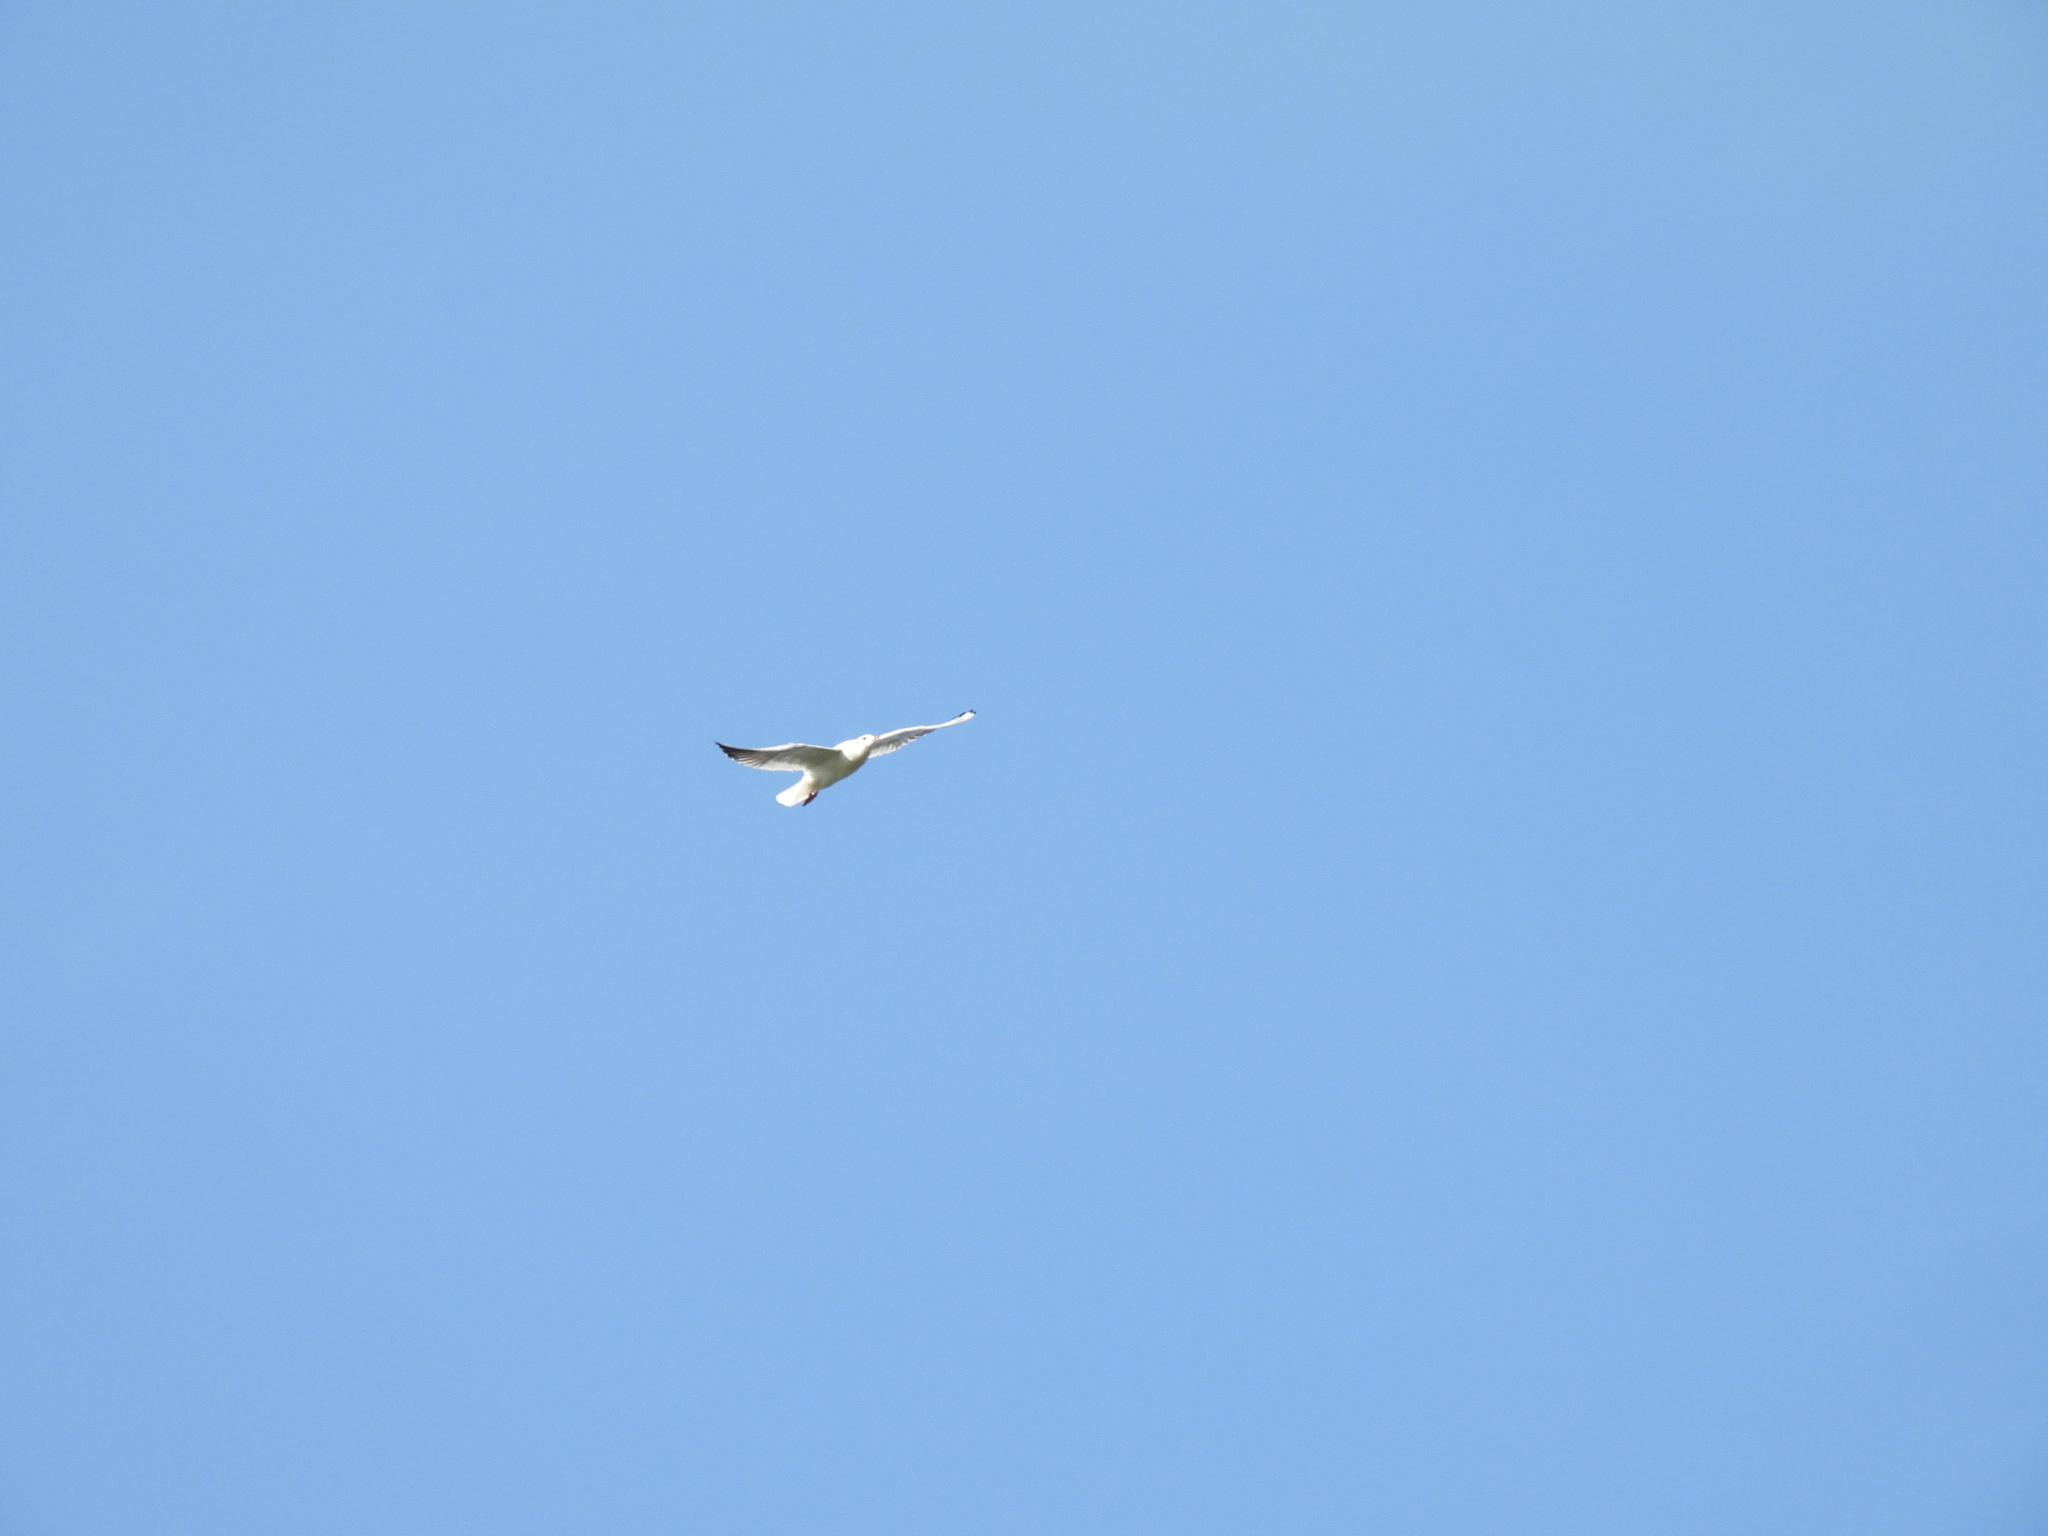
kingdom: Animalia
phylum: Chordata
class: Aves
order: Charadriiformes
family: Laridae
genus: Chroicocephalus
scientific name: Chroicocephalus ridibundus
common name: Black-headed gull
